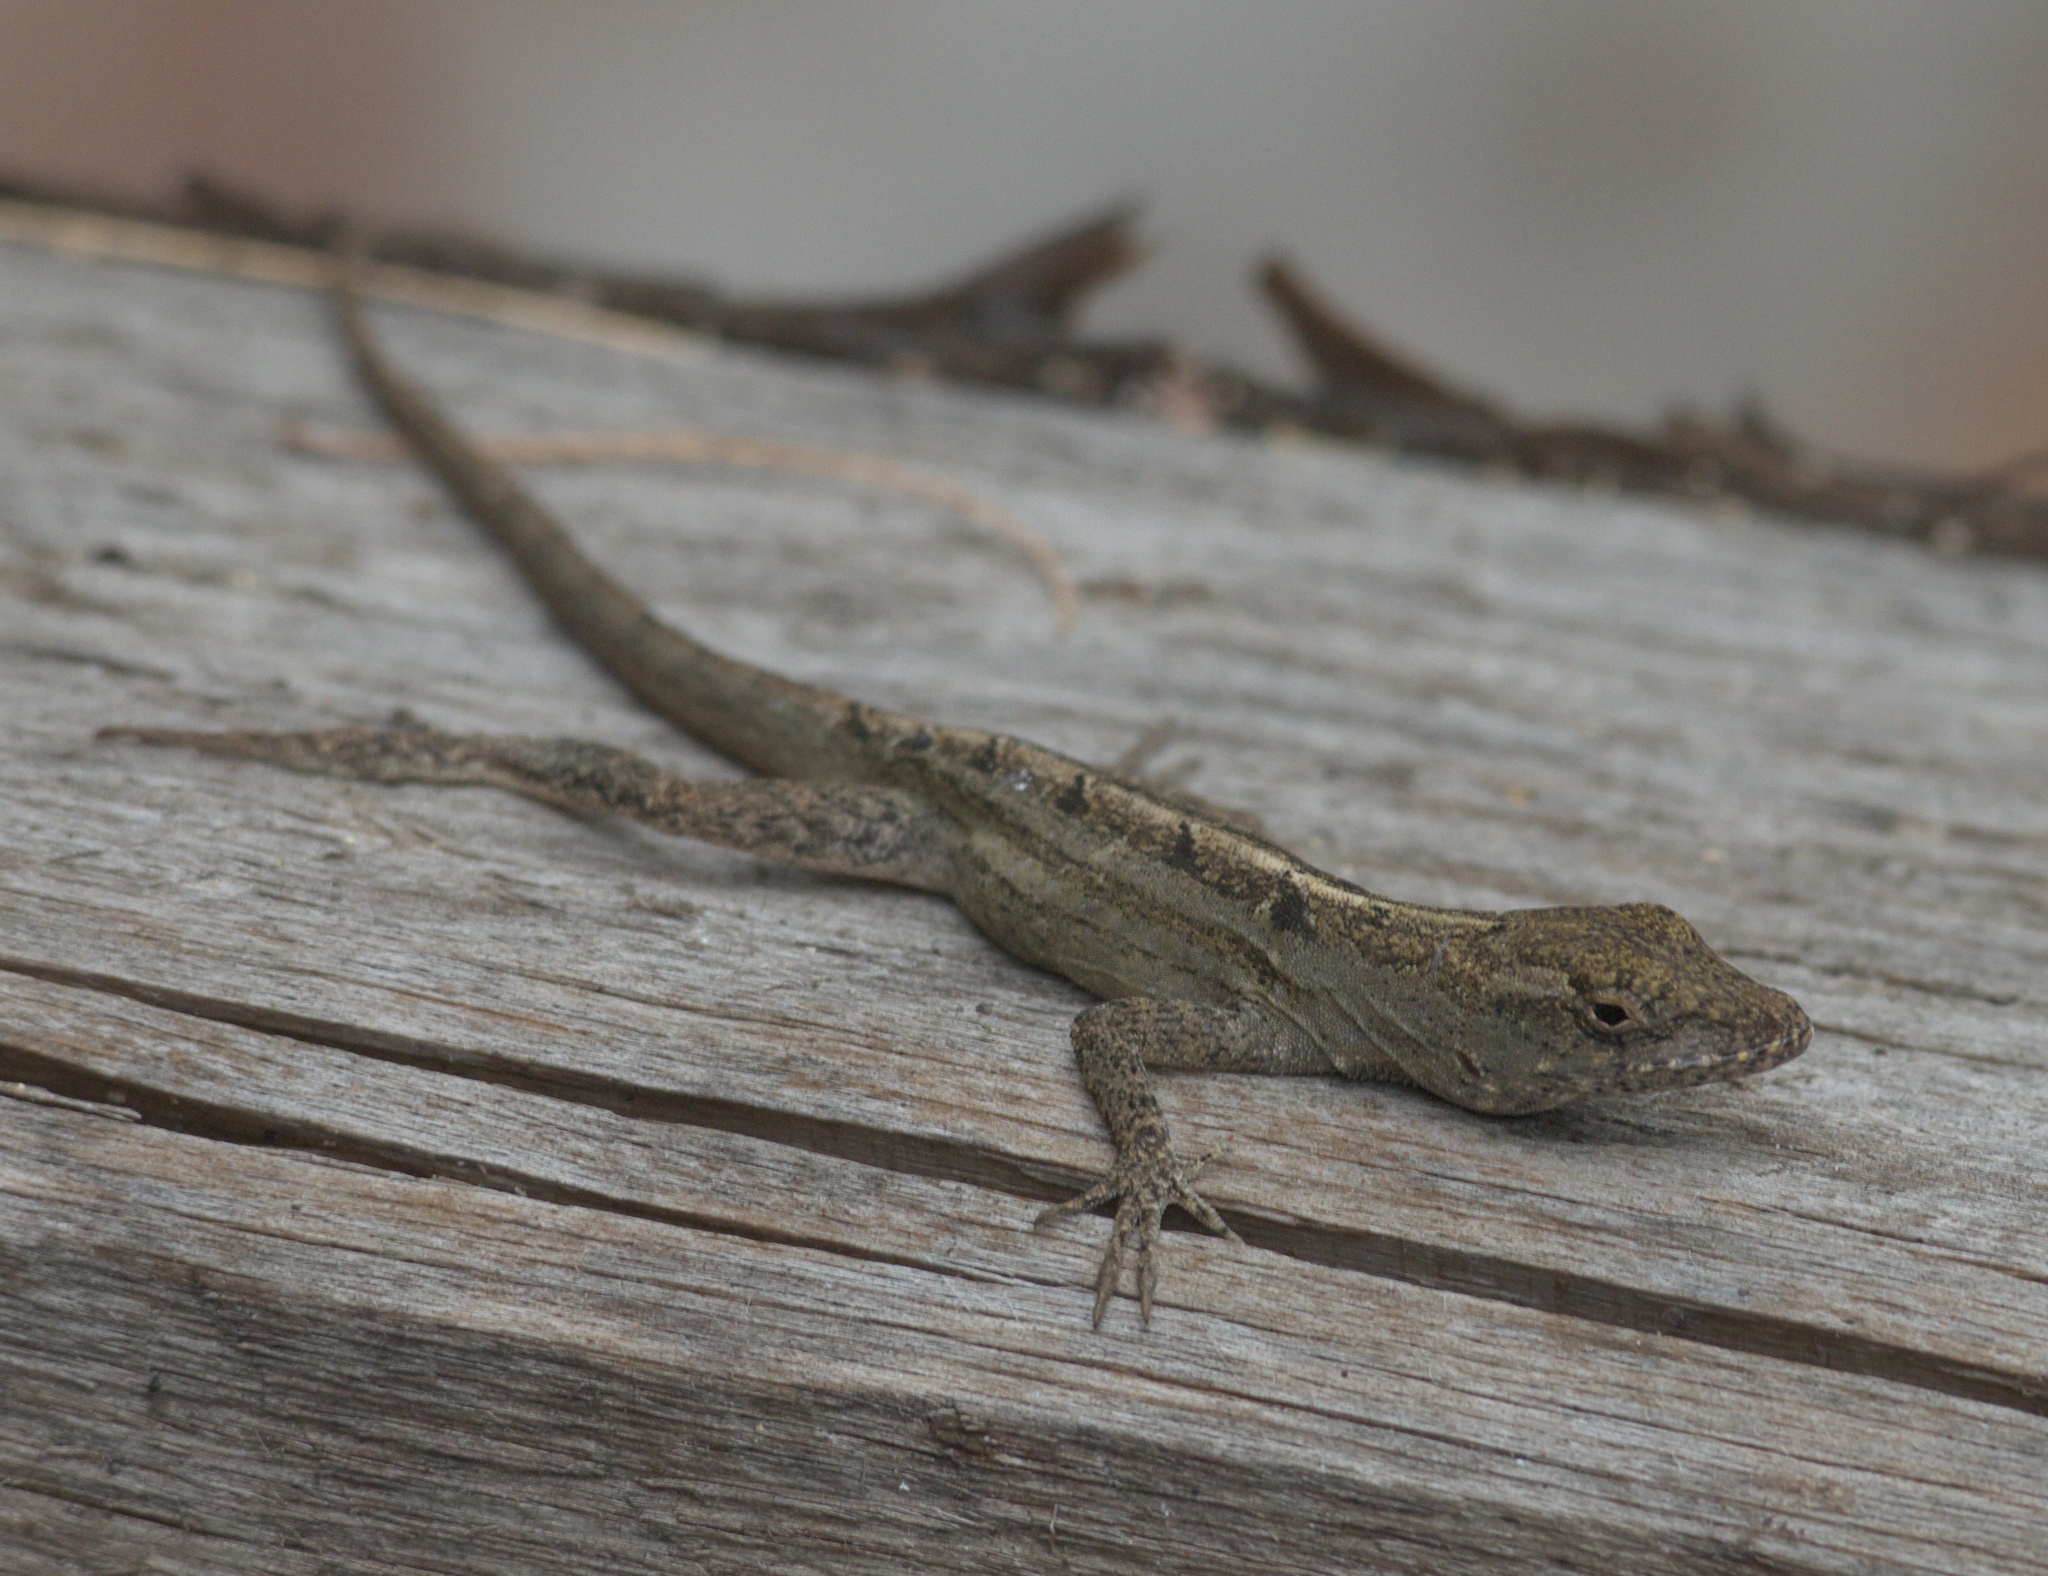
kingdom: Animalia
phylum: Chordata
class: Squamata
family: Dactyloidae
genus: Anolis
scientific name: Anolis sagrei
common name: Brown anole
